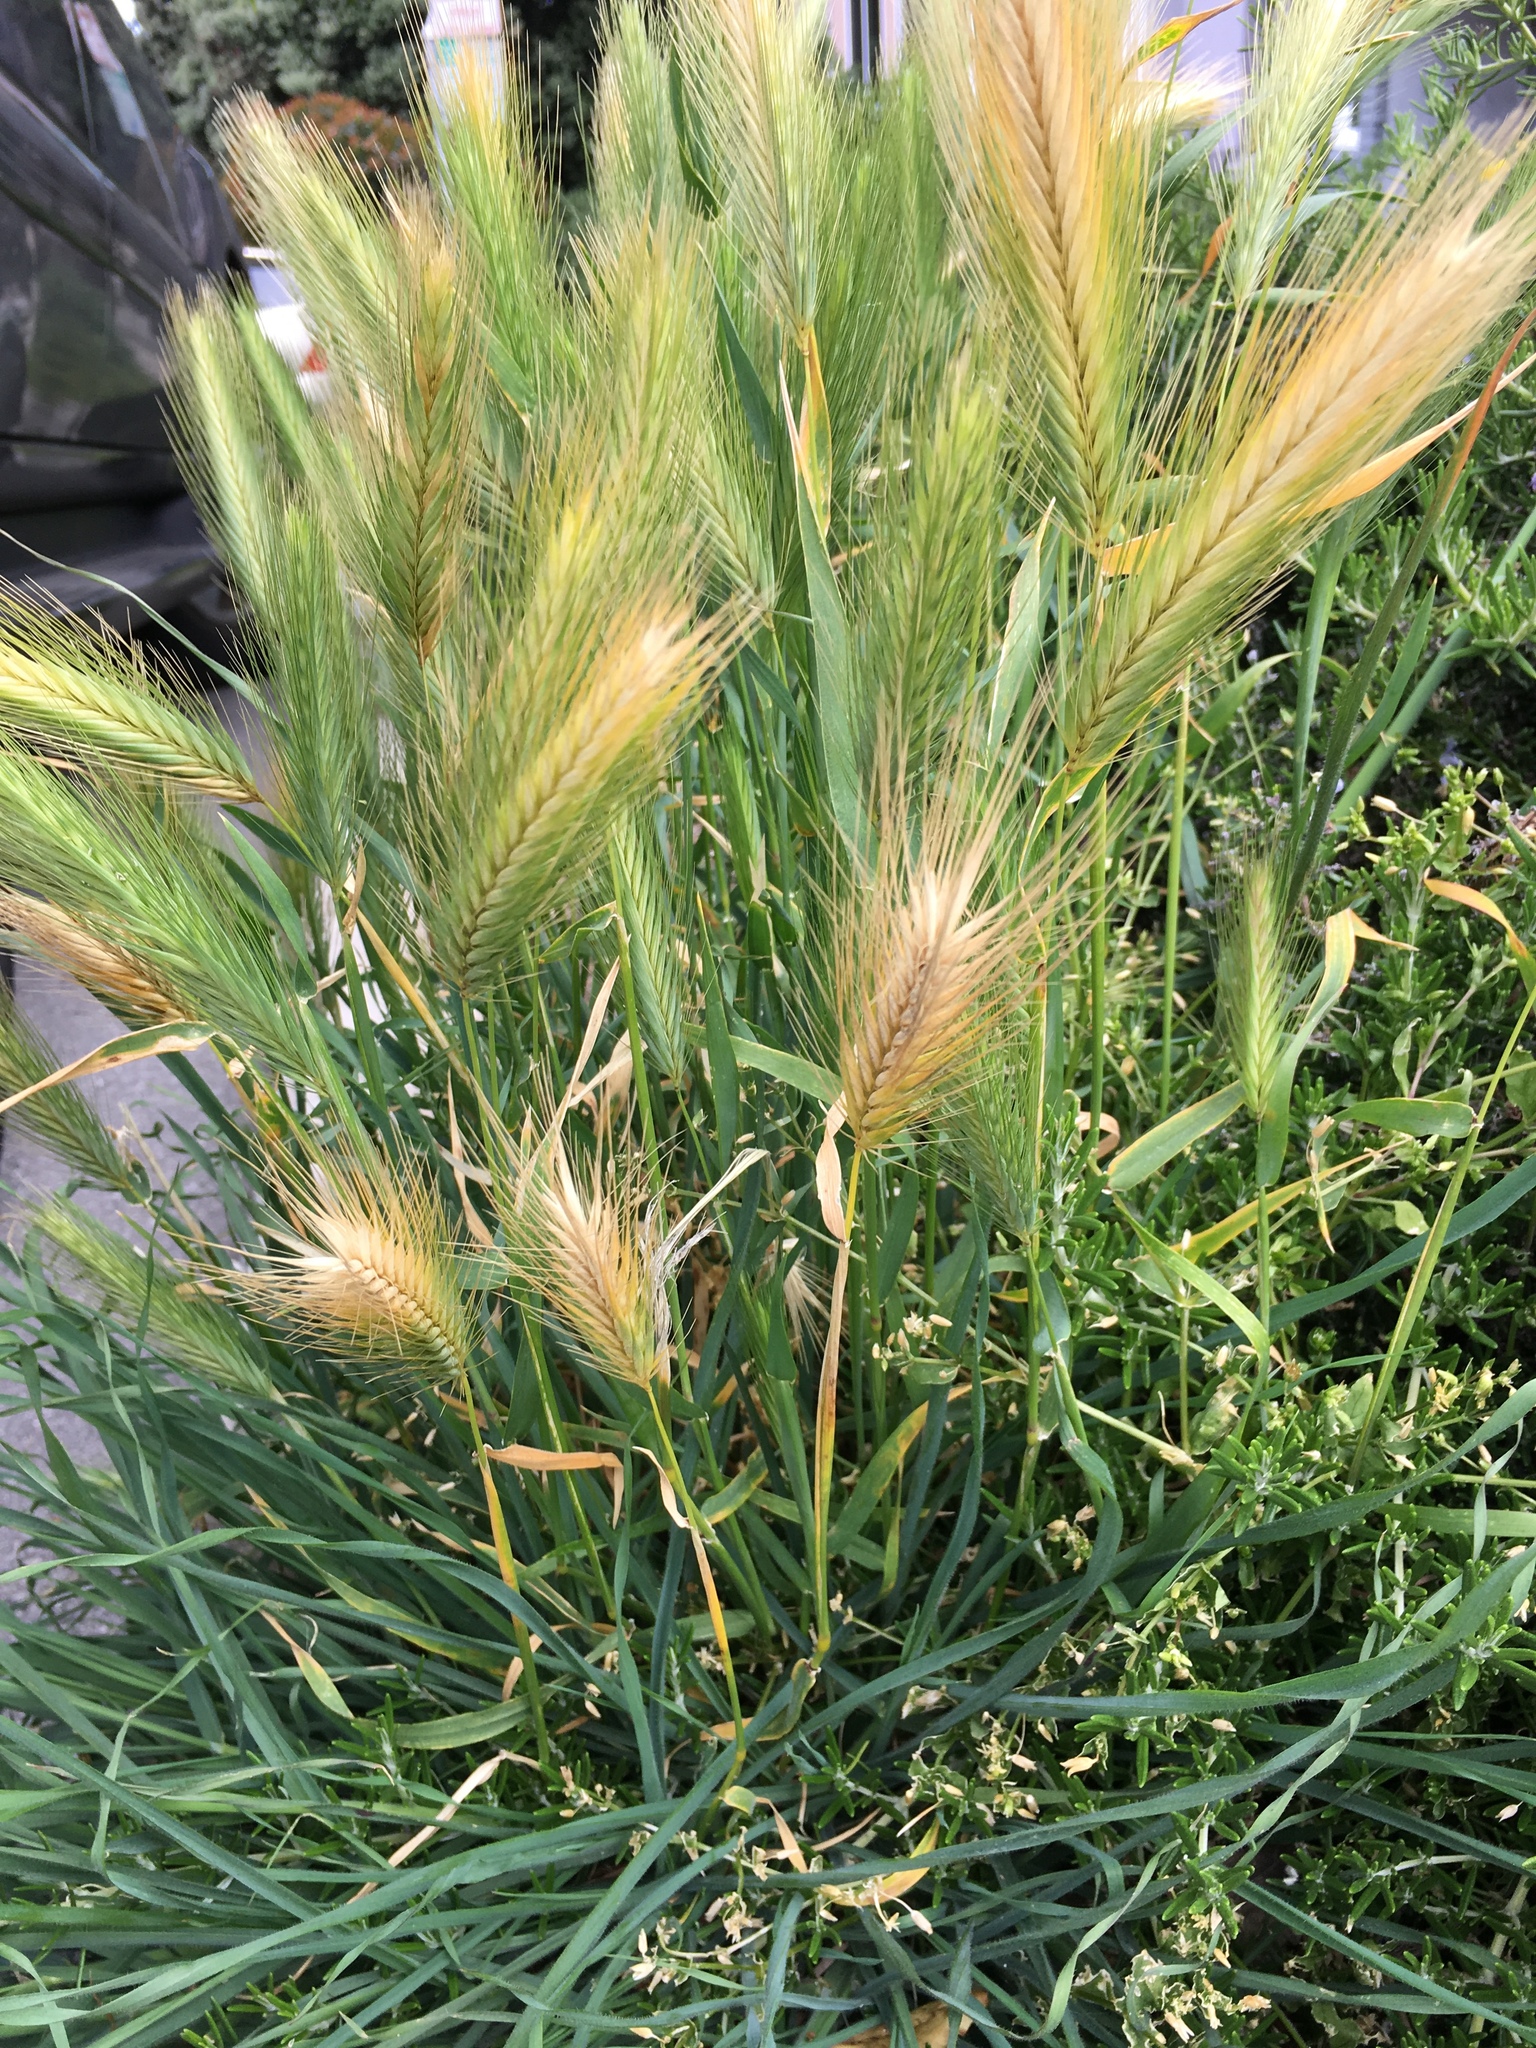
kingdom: Plantae
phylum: Tracheophyta
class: Liliopsida
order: Poales
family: Poaceae
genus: Hordeum
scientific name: Hordeum murinum
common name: Wall barley
